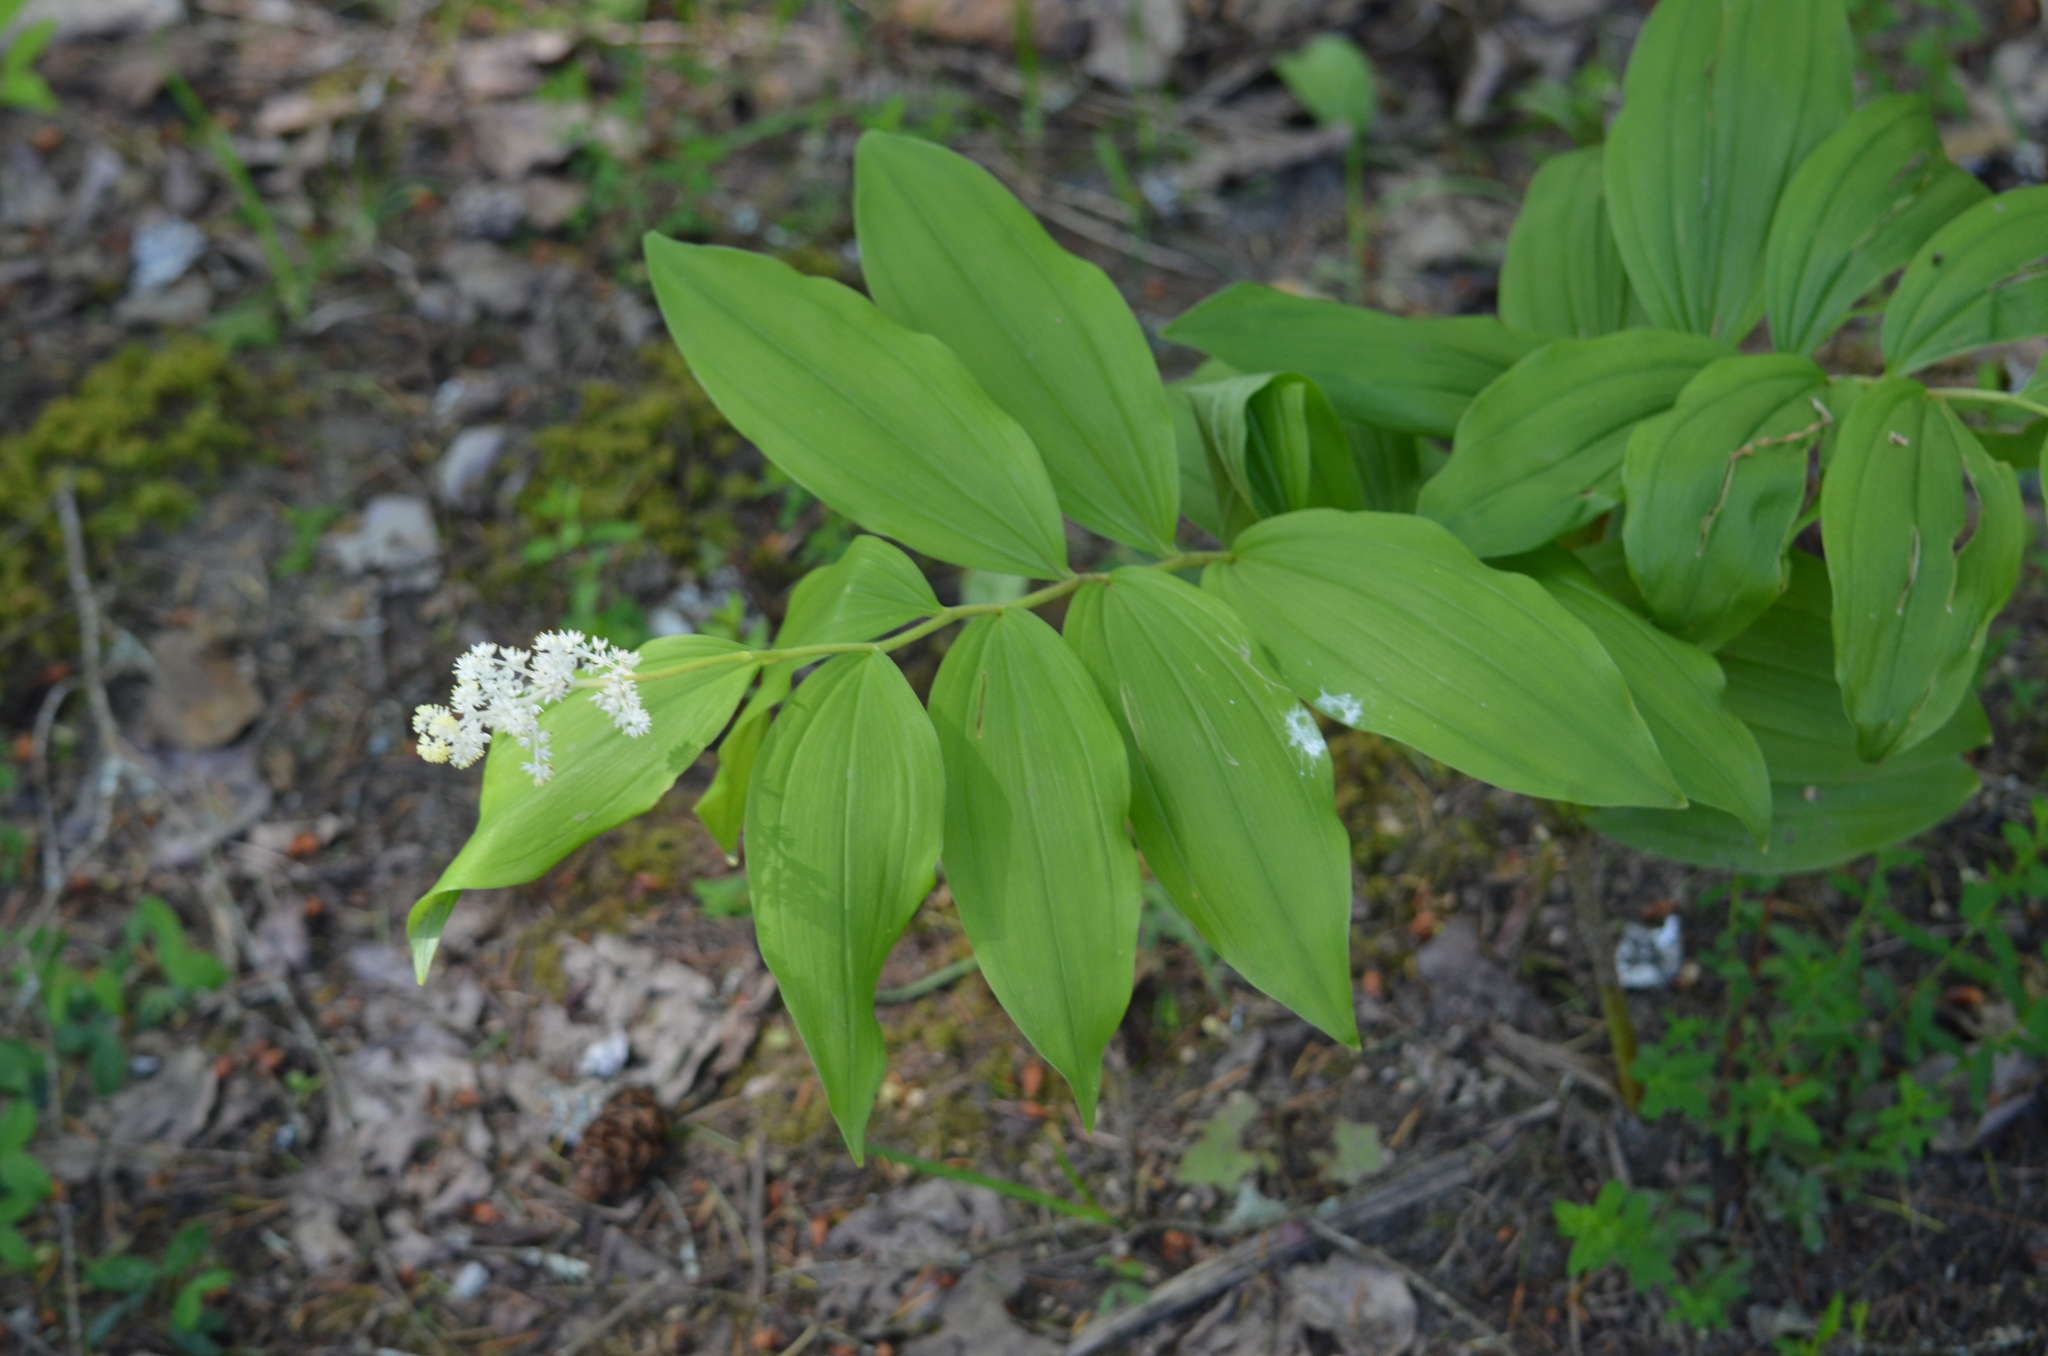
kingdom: Plantae
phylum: Tracheophyta
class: Liliopsida
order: Asparagales
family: Asparagaceae
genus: Maianthemum
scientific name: Maianthemum racemosum
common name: False spikenard
